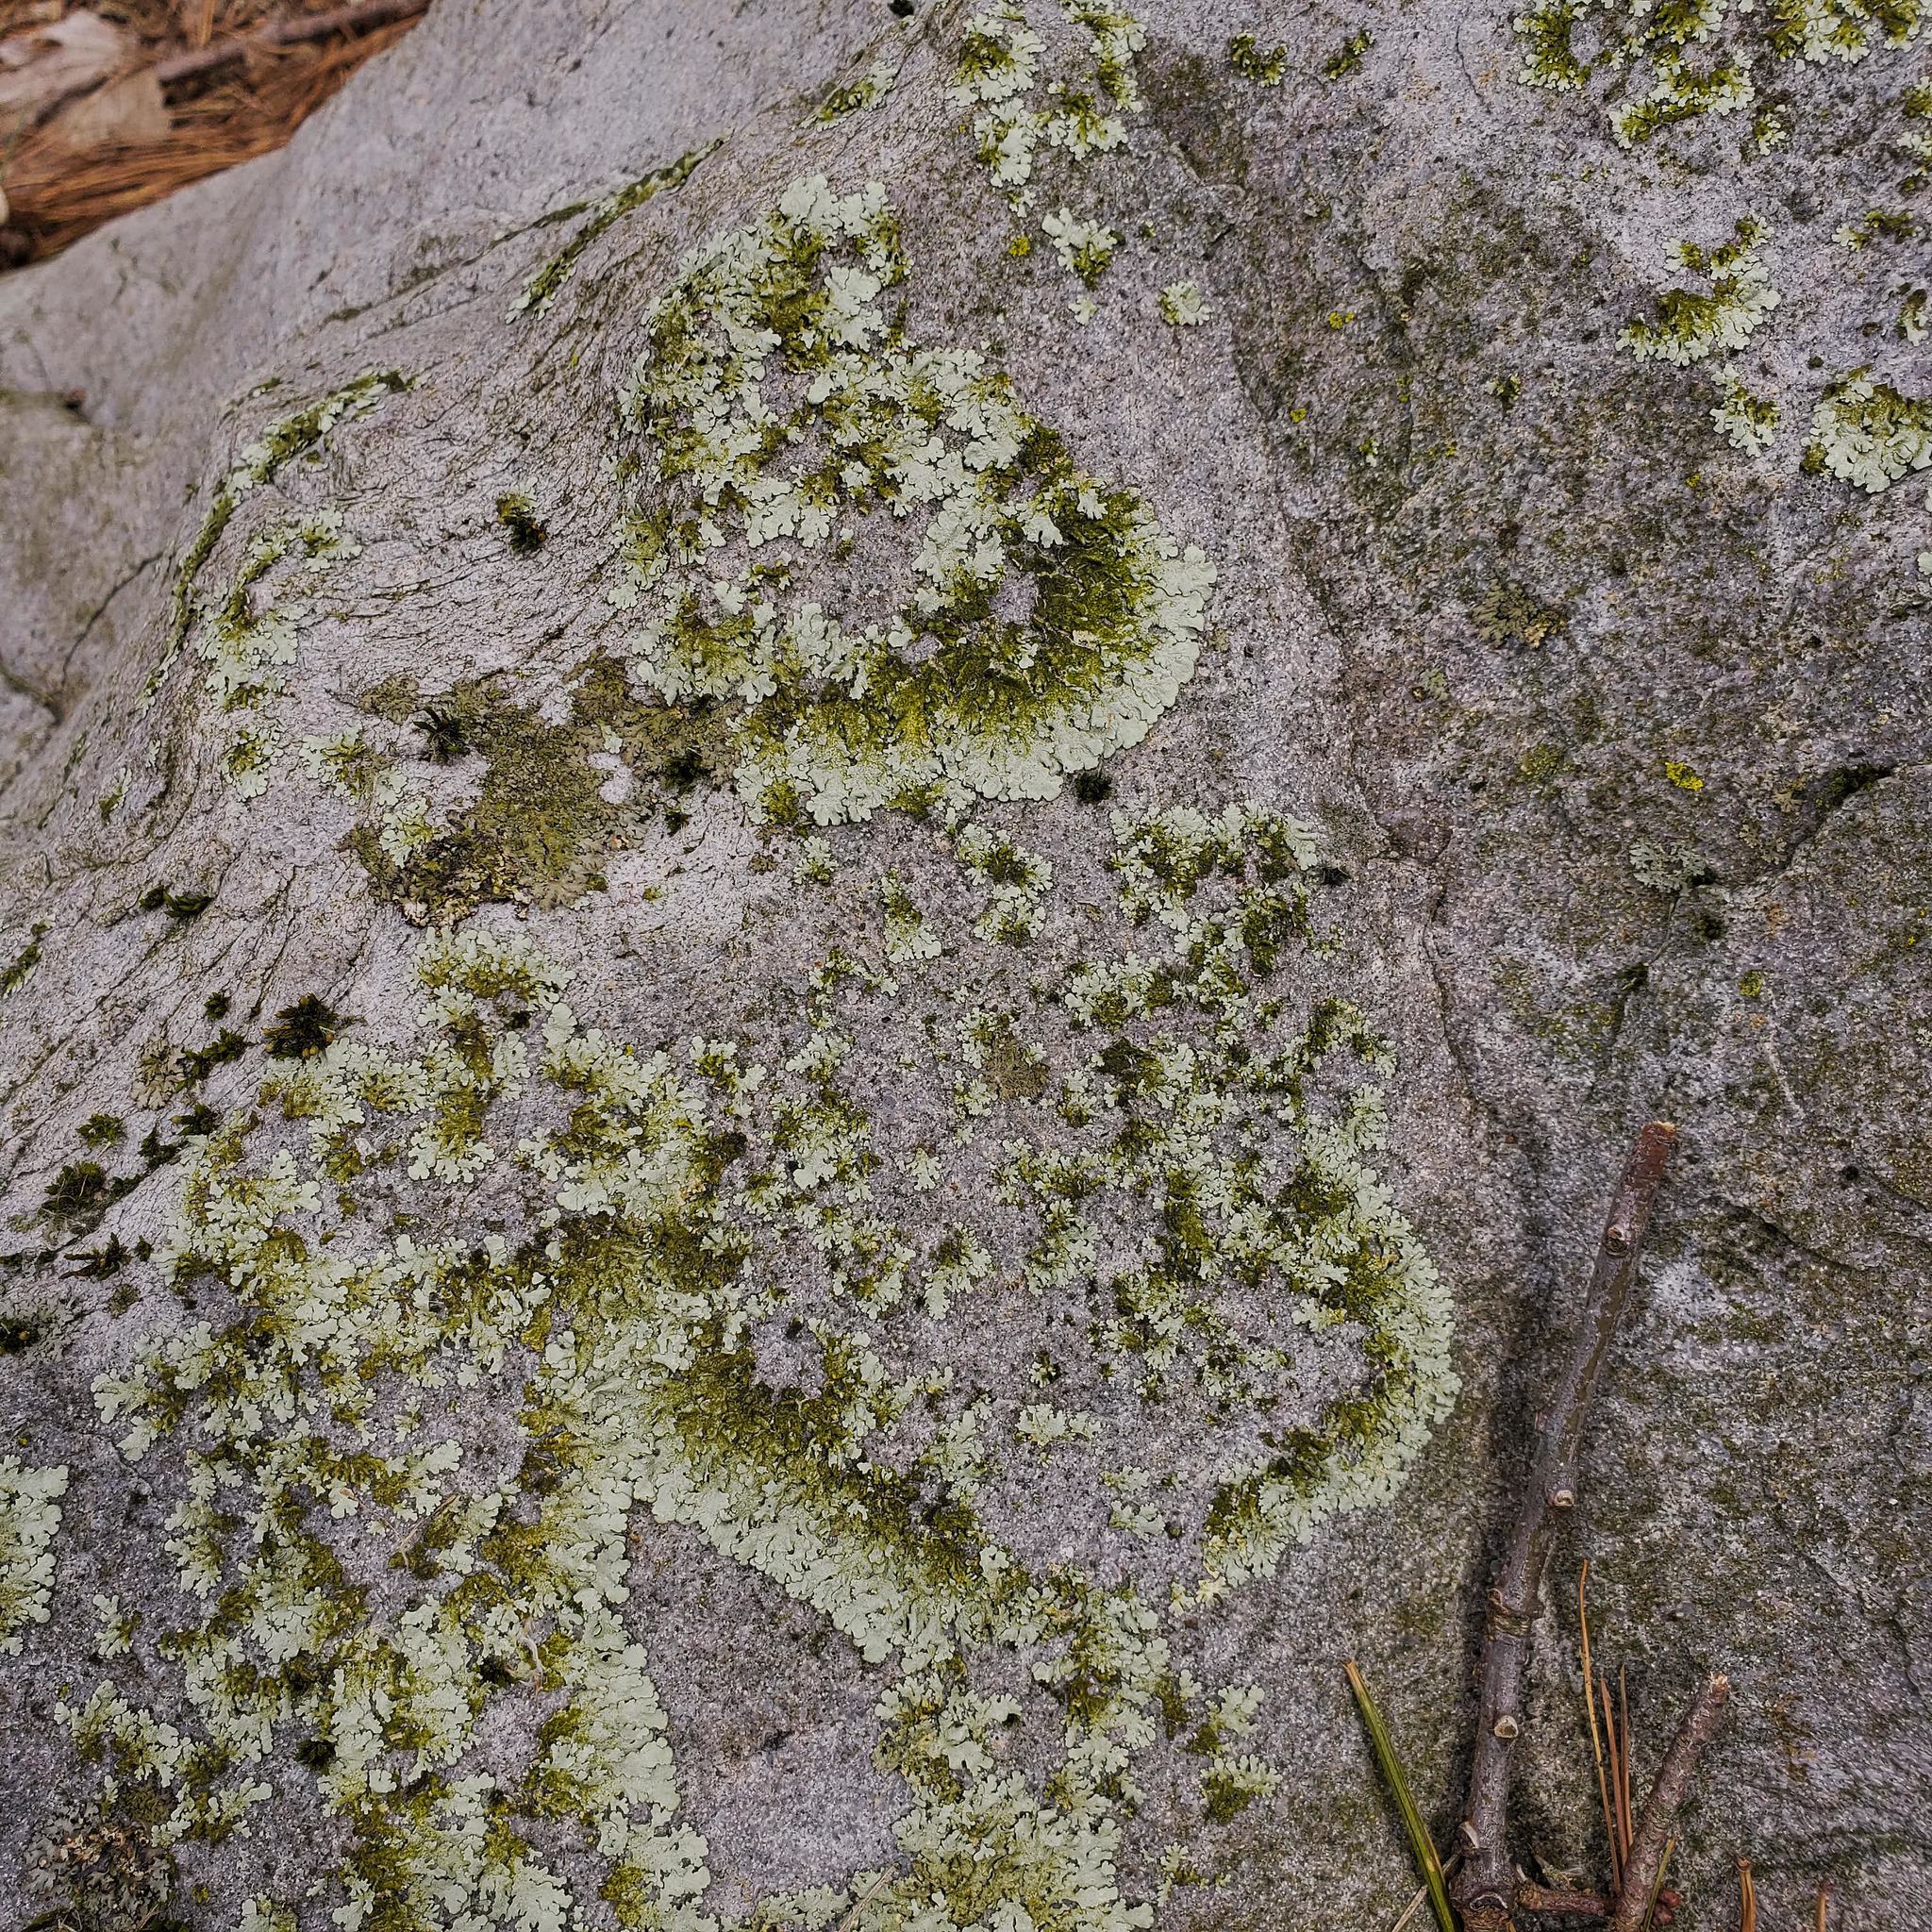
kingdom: Fungi
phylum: Ascomycota
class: Lecanoromycetes
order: Lecanorales
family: Parmeliaceae
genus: Arctoparmelia
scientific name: Arctoparmelia centrifuga
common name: Concentric ring lichen
